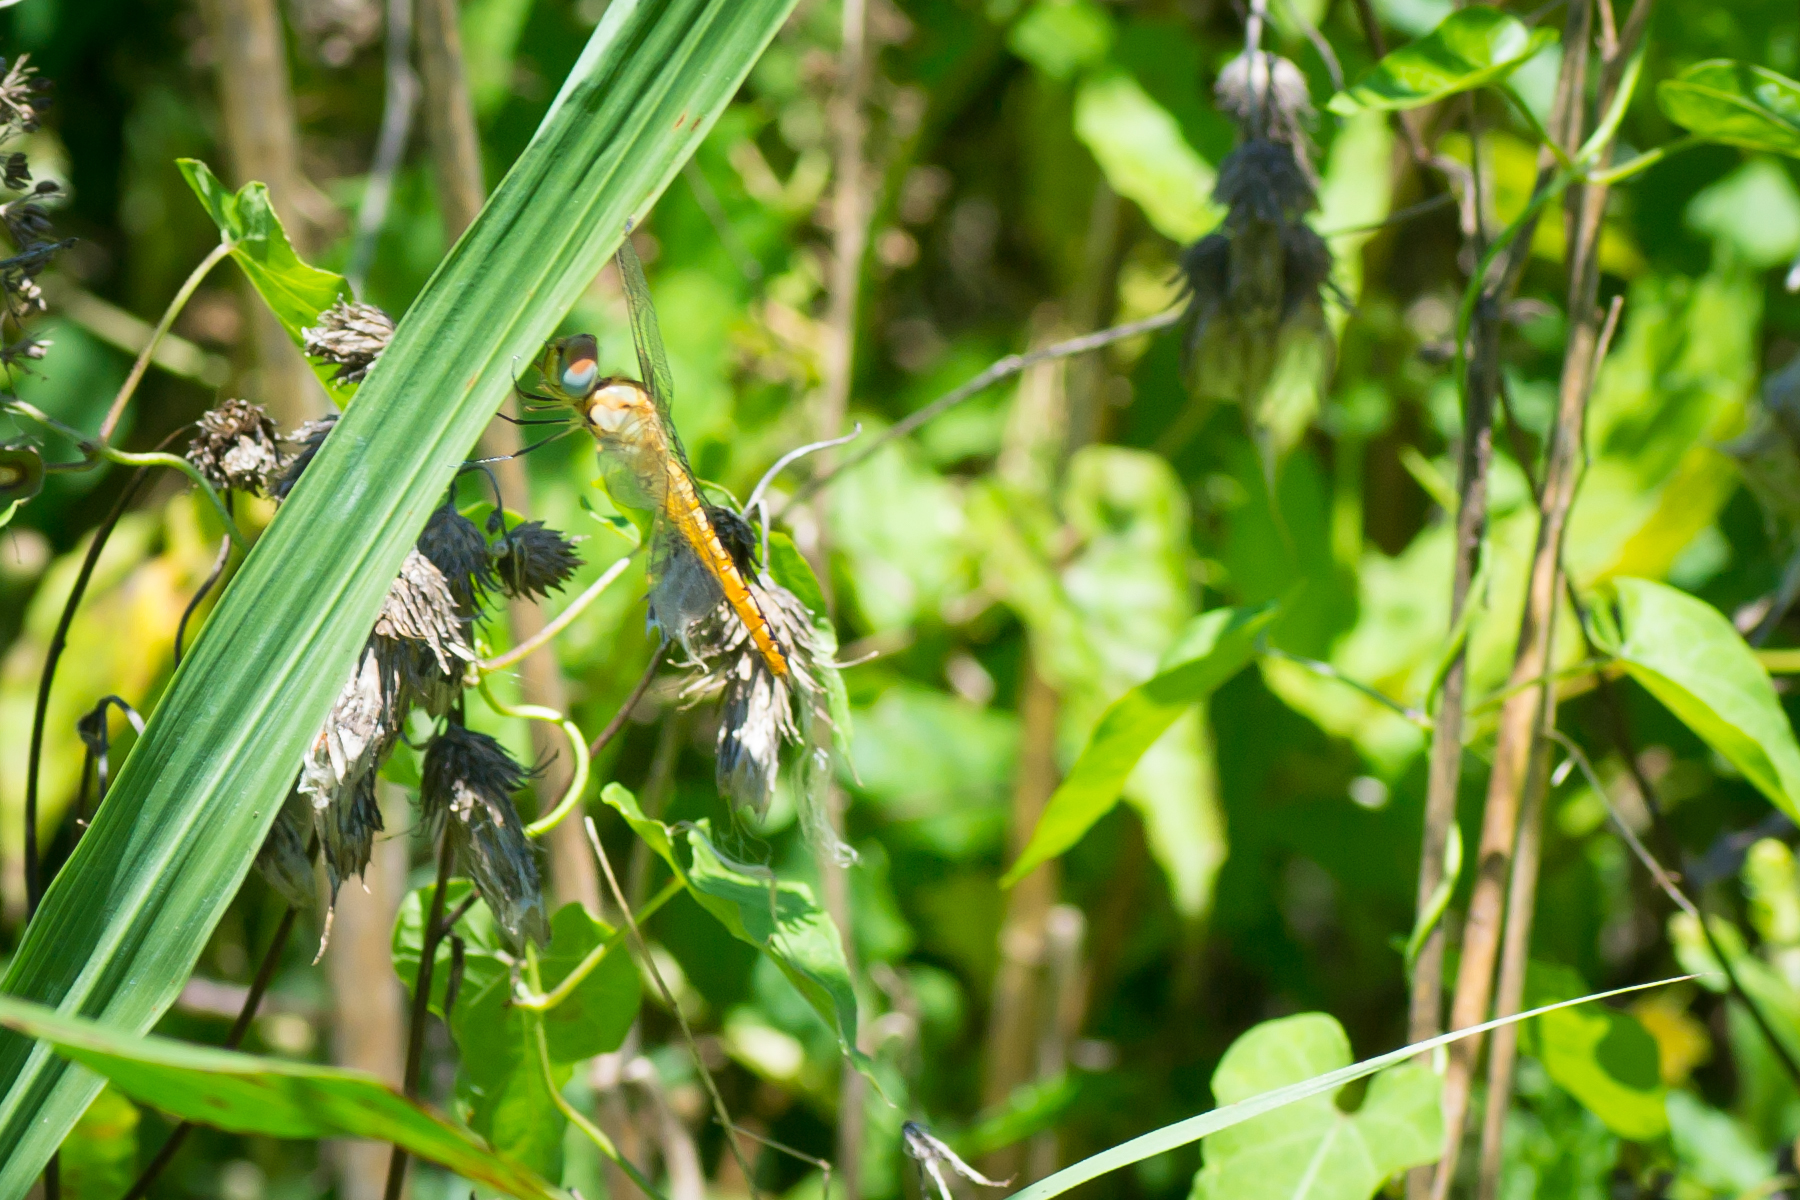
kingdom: Animalia
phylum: Arthropoda
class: Insecta
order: Odonata
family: Libellulidae
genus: Pantala
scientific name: Pantala flavescens
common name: Wandering glider
